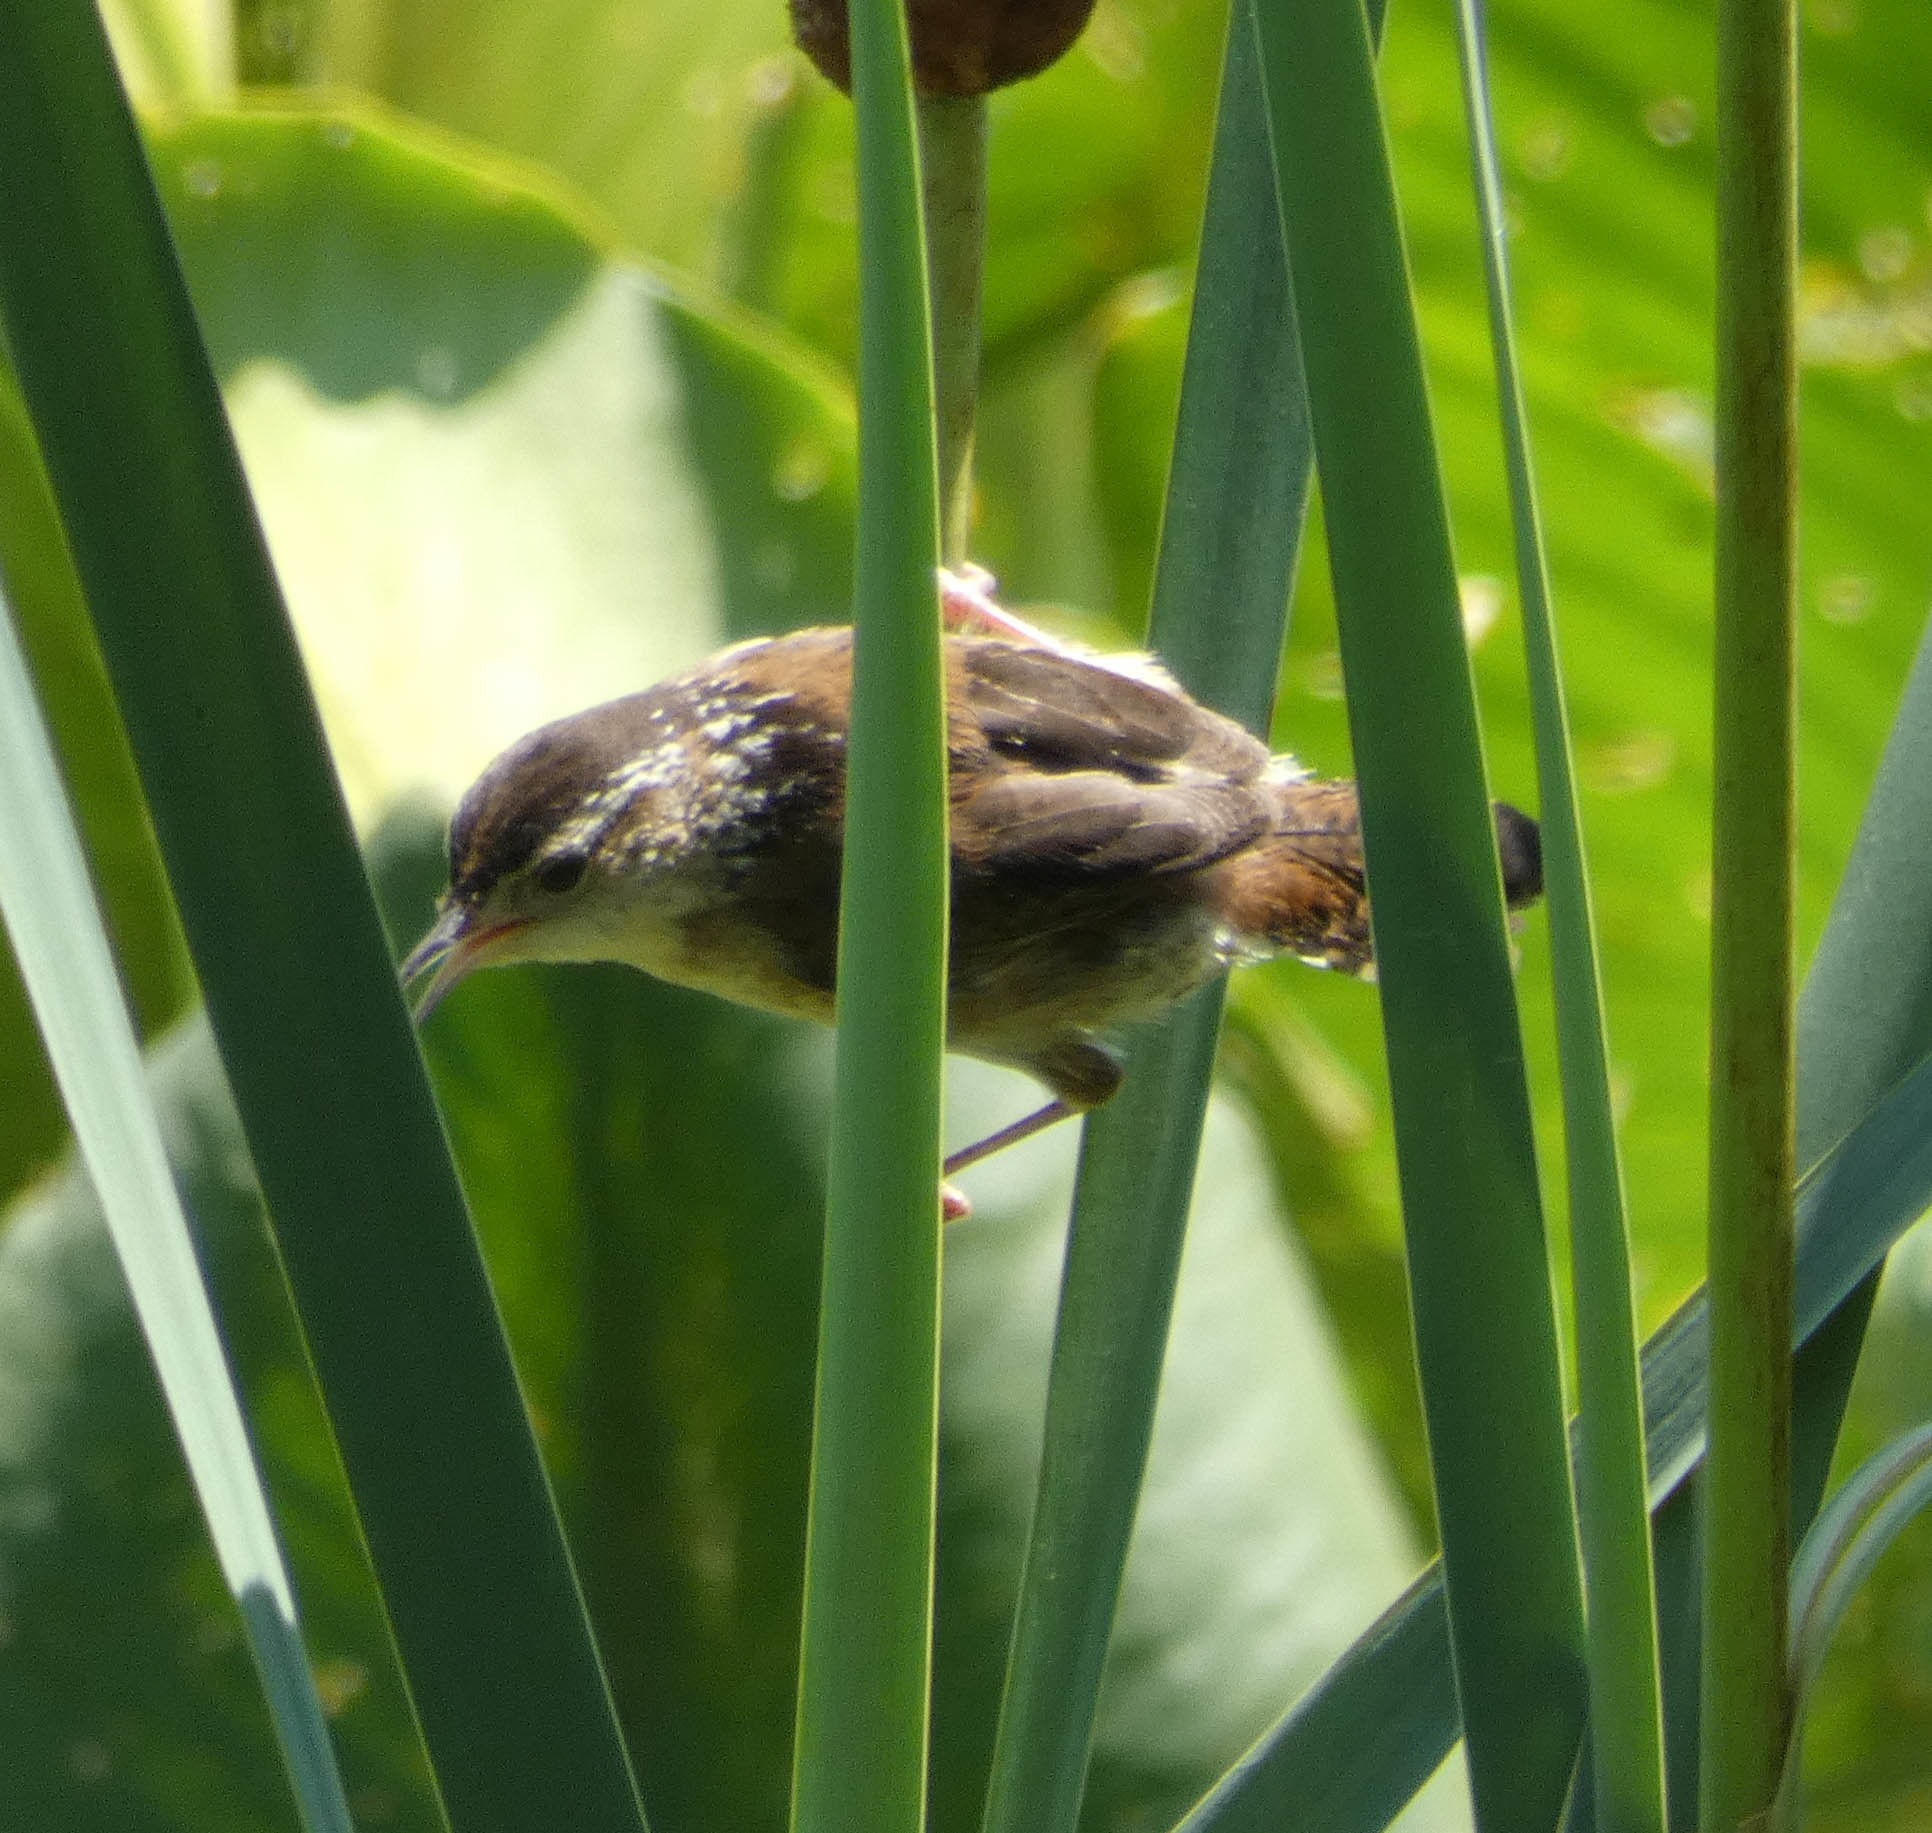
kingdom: Animalia
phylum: Chordata
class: Aves
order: Passeriformes
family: Troglodytidae
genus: Cistothorus
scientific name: Cistothorus palustris
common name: Marsh wren
